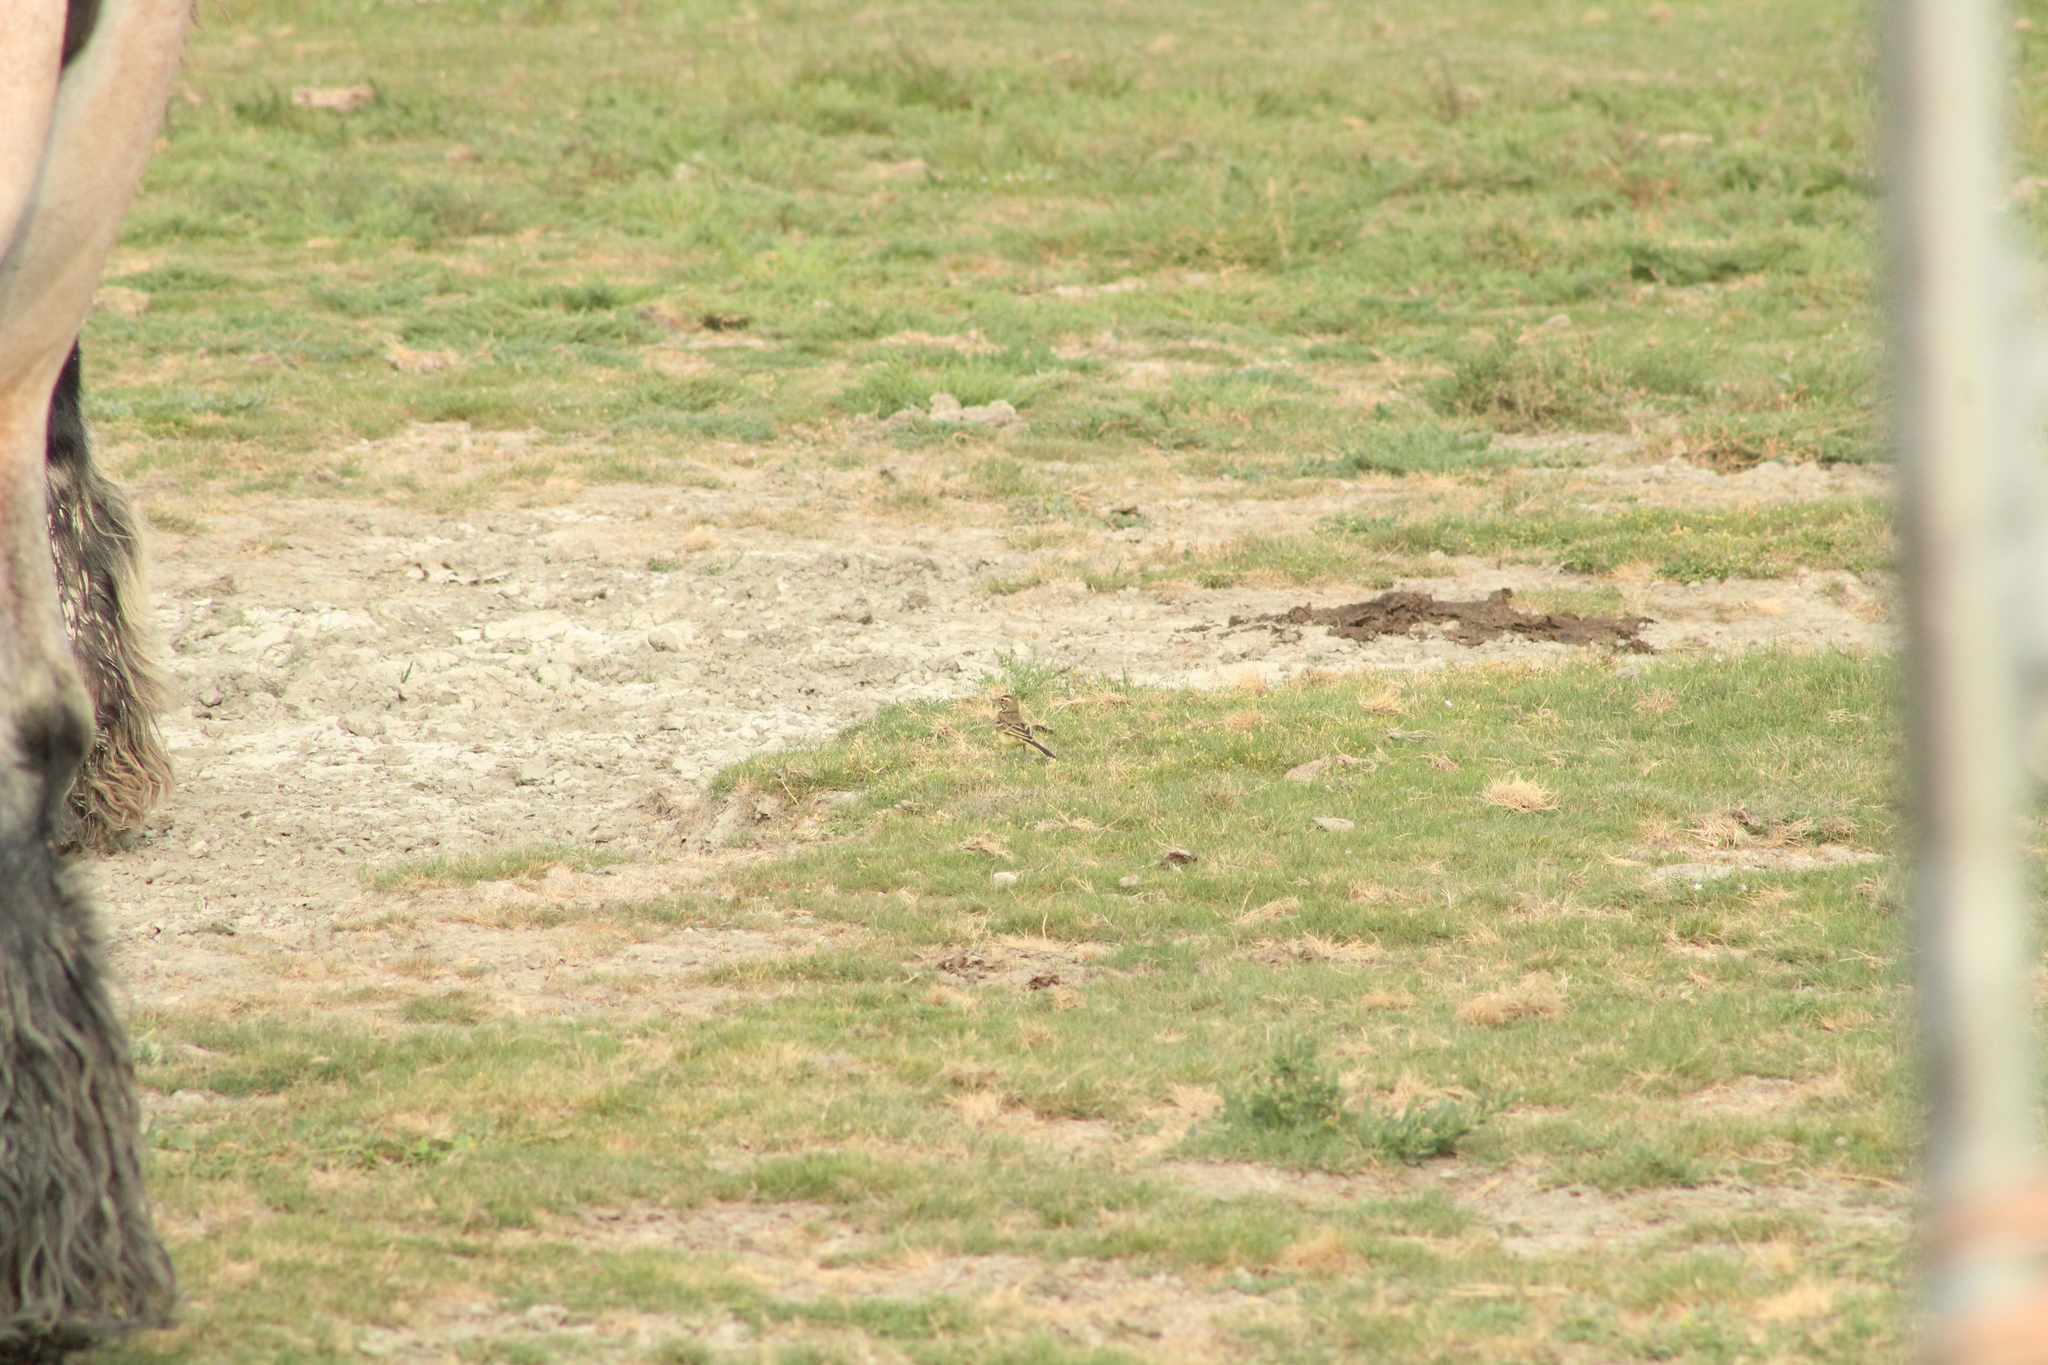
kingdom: Animalia
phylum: Chordata
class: Aves
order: Passeriformes
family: Motacillidae
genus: Motacilla
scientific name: Motacilla flava
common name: Western yellow wagtail
